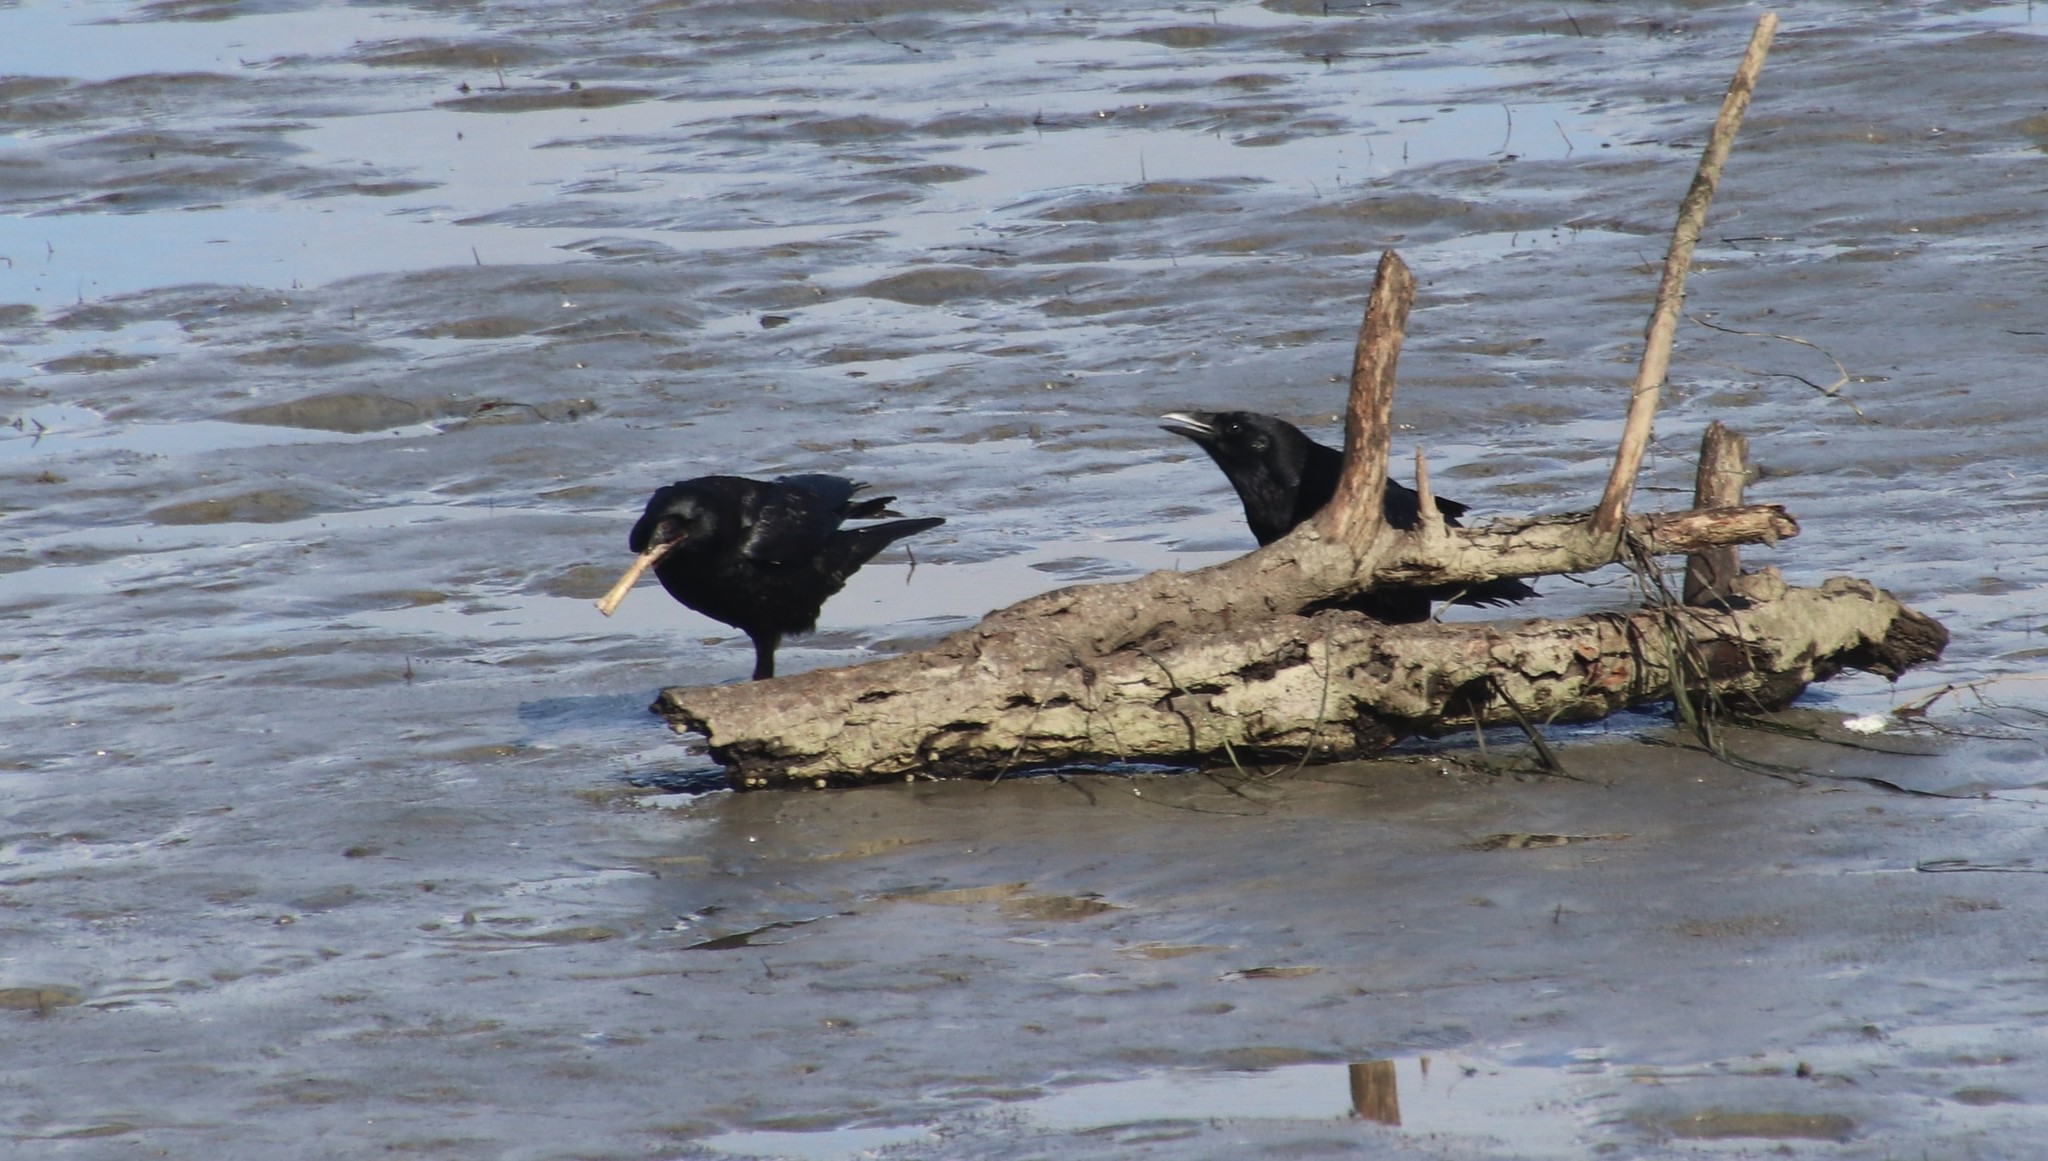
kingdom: Animalia
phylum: Chordata
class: Aves
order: Passeriformes
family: Corvidae
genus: Corvus
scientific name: Corvus brachyrhynchos
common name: American crow
